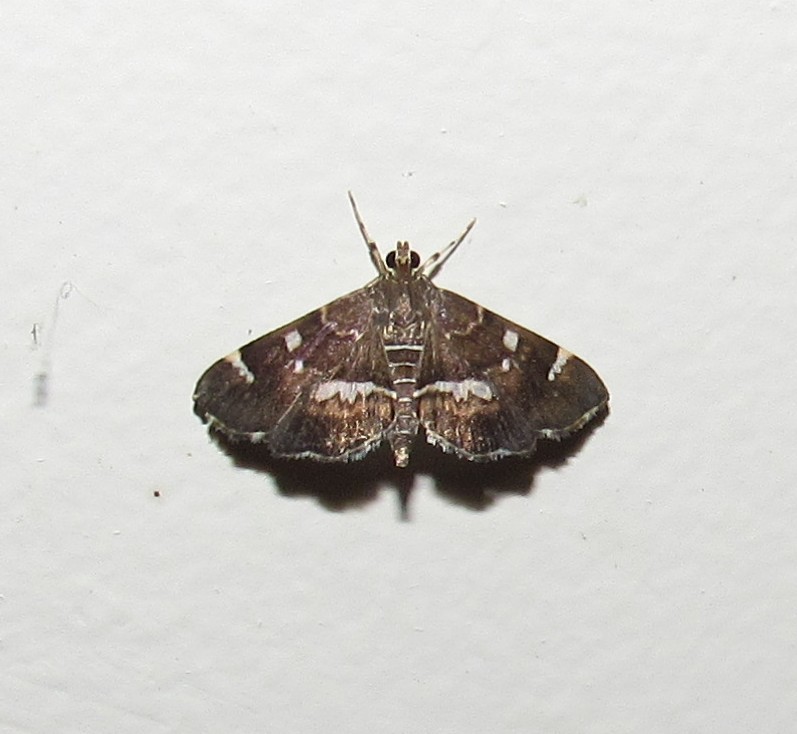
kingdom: Animalia
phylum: Arthropoda
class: Insecta
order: Lepidoptera
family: Crambidae
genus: Hymenia
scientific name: Hymenia perspectalis
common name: Spotted beet webworm
